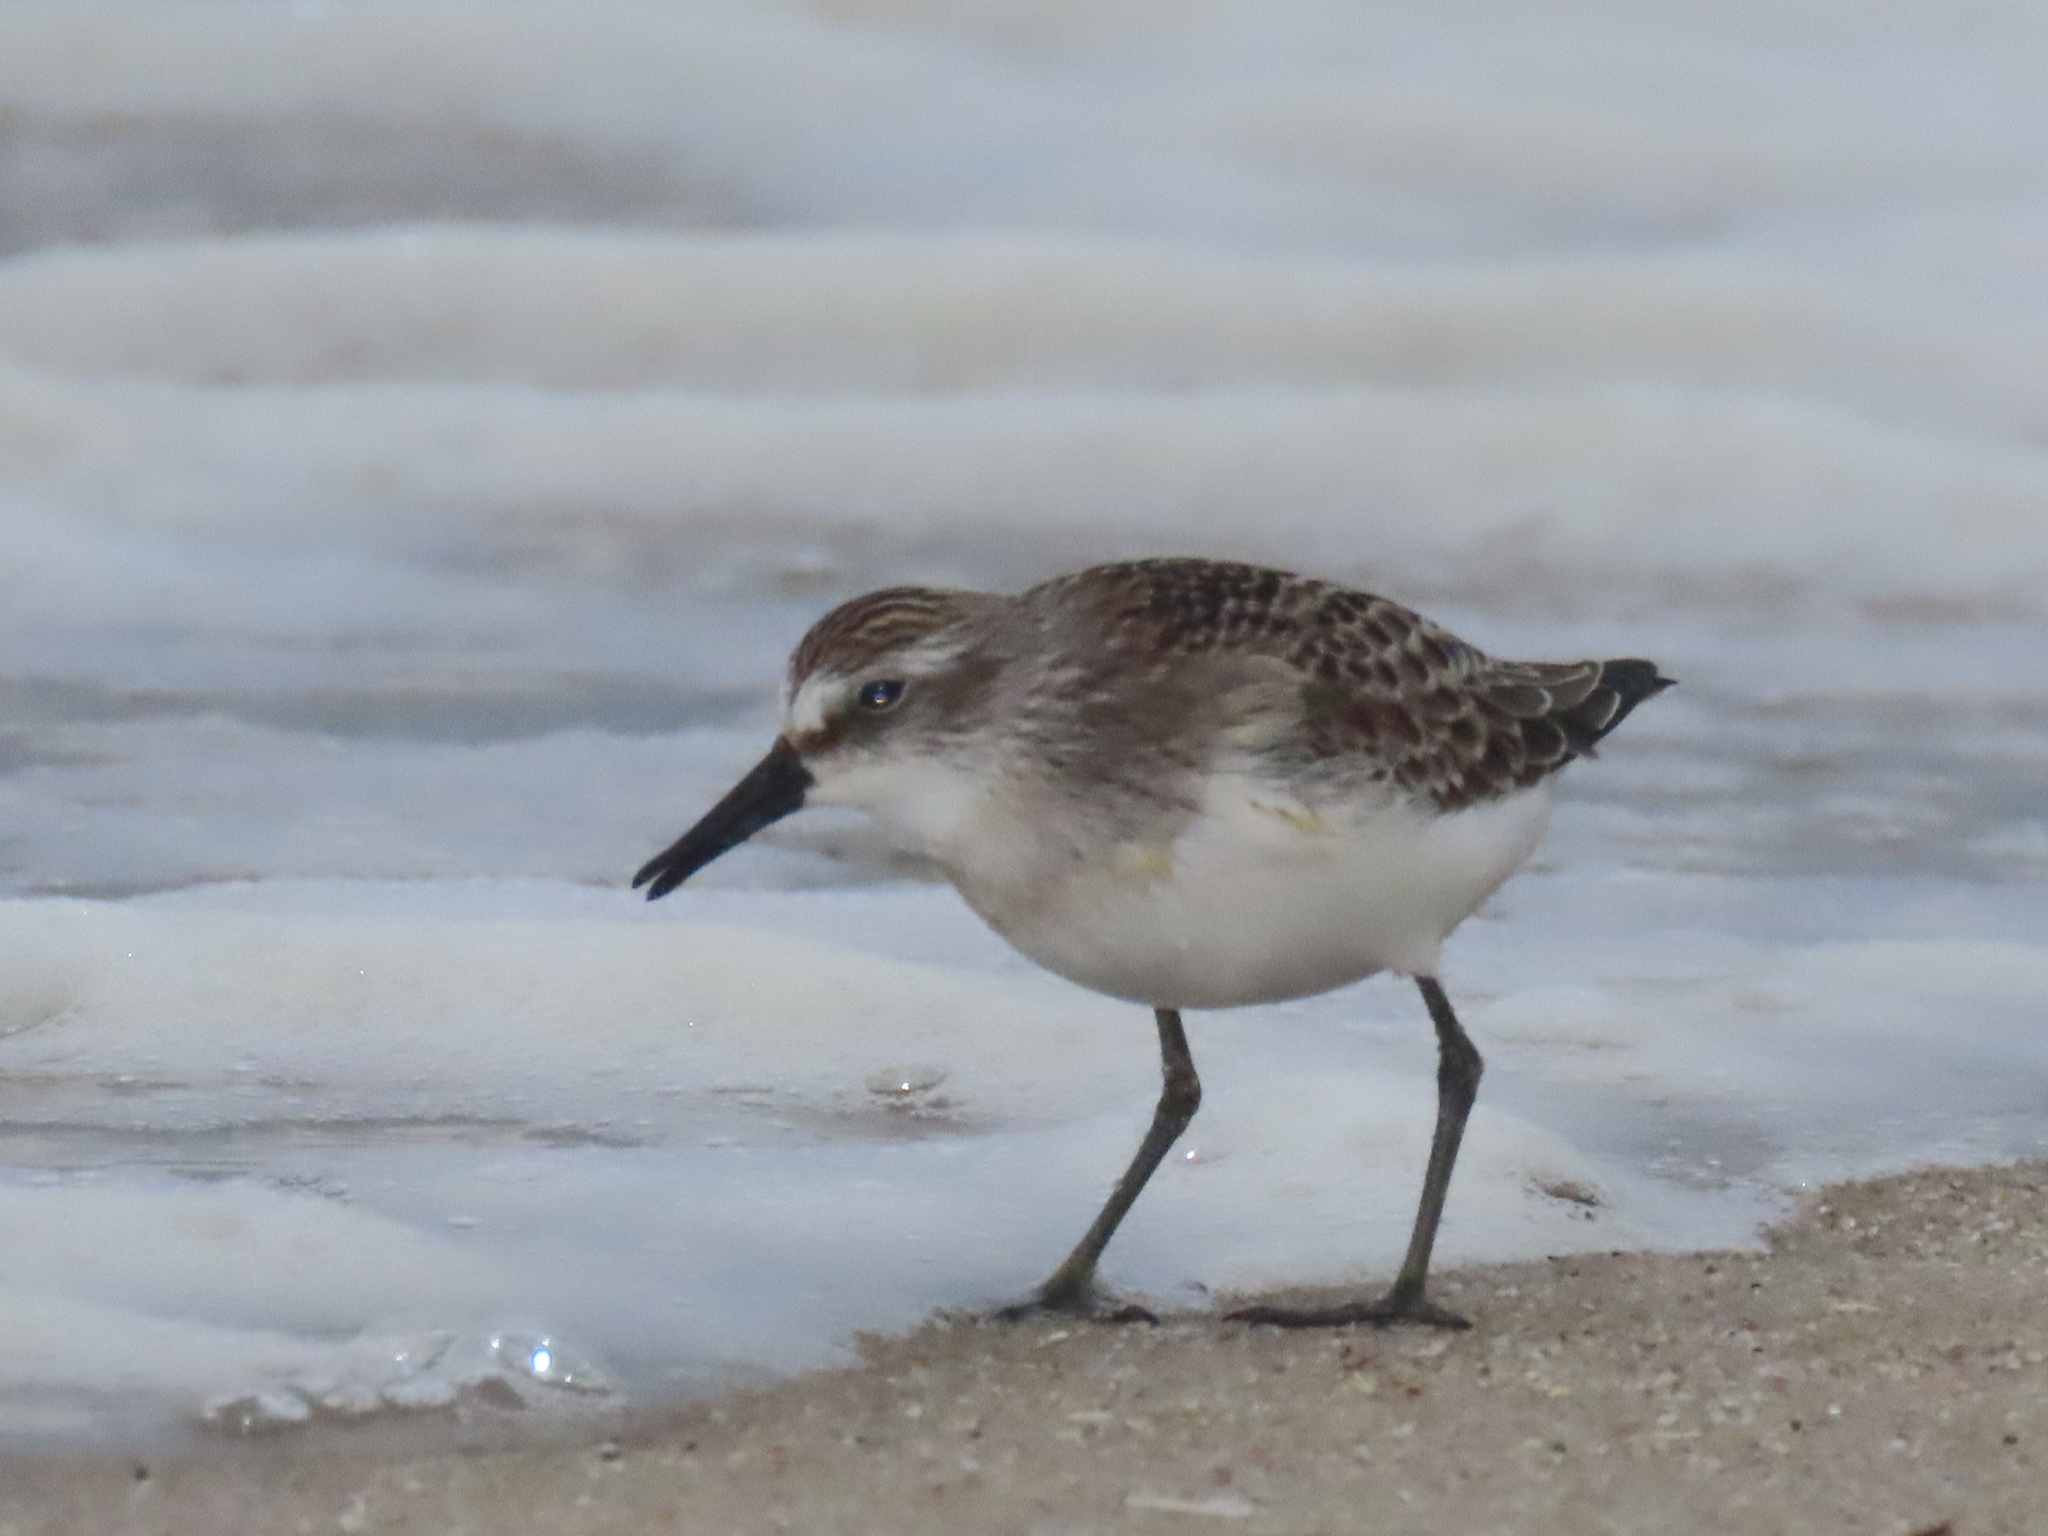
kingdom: Animalia
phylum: Chordata
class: Aves
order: Charadriiformes
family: Scolopacidae
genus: Calidris
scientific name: Calidris alba
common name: Sanderling
